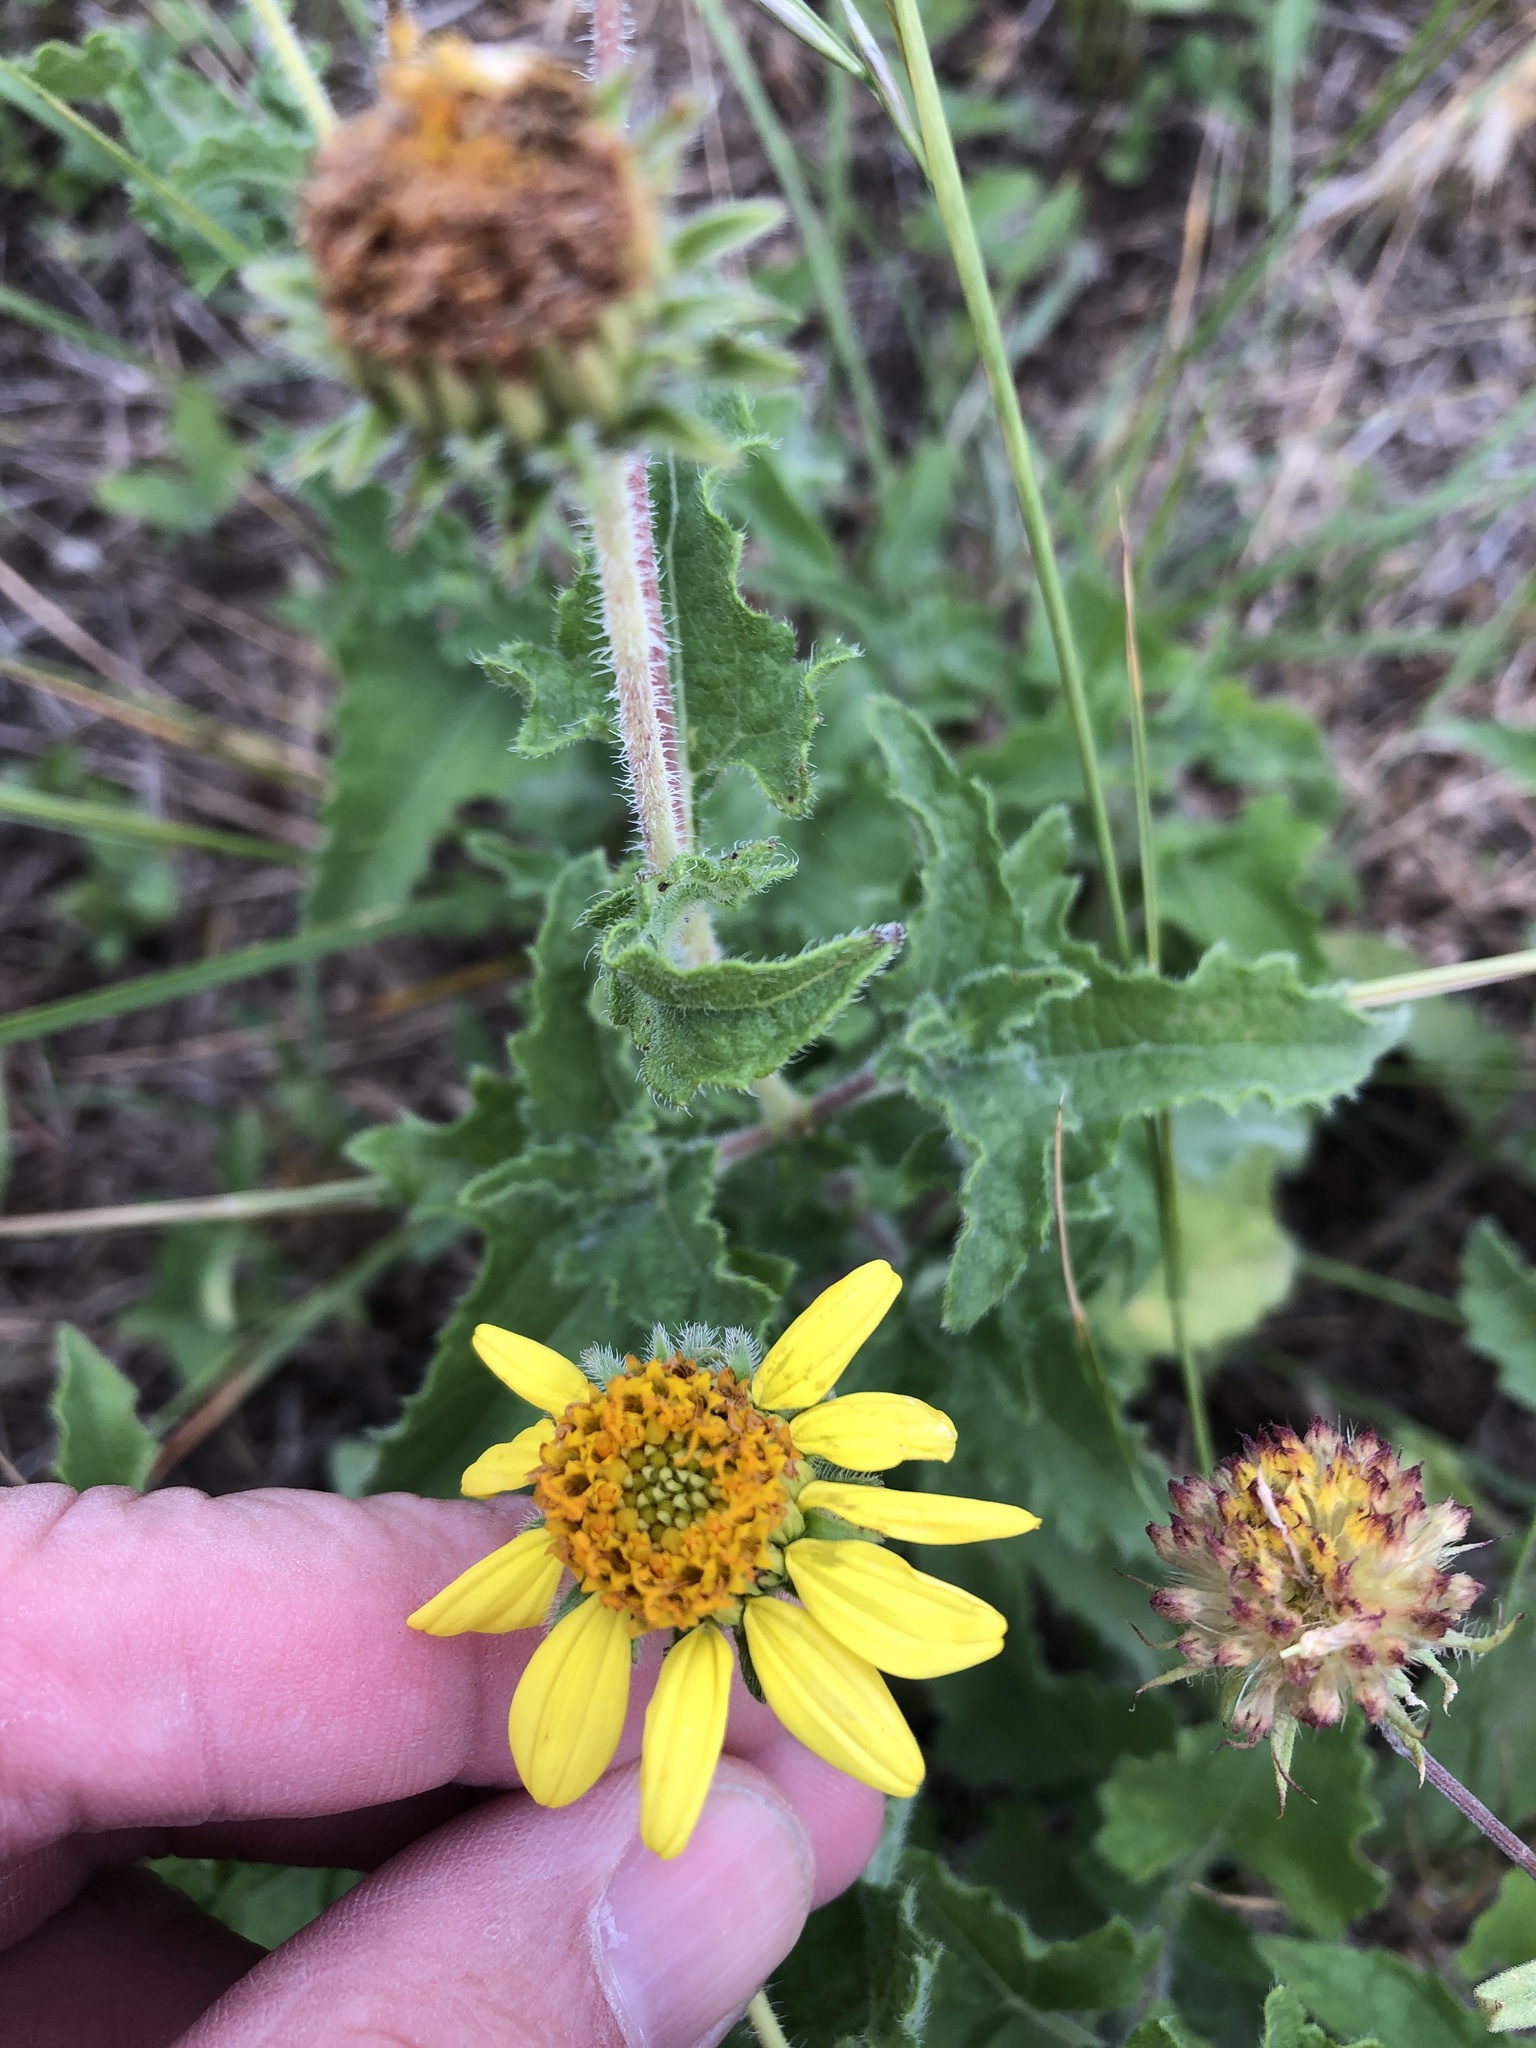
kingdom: Plantae
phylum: Tracheophyta
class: Magnoliopsida
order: Asterales
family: Asteraceae
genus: Simsia
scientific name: Simsia calva
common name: Awnless bush-sunflower
